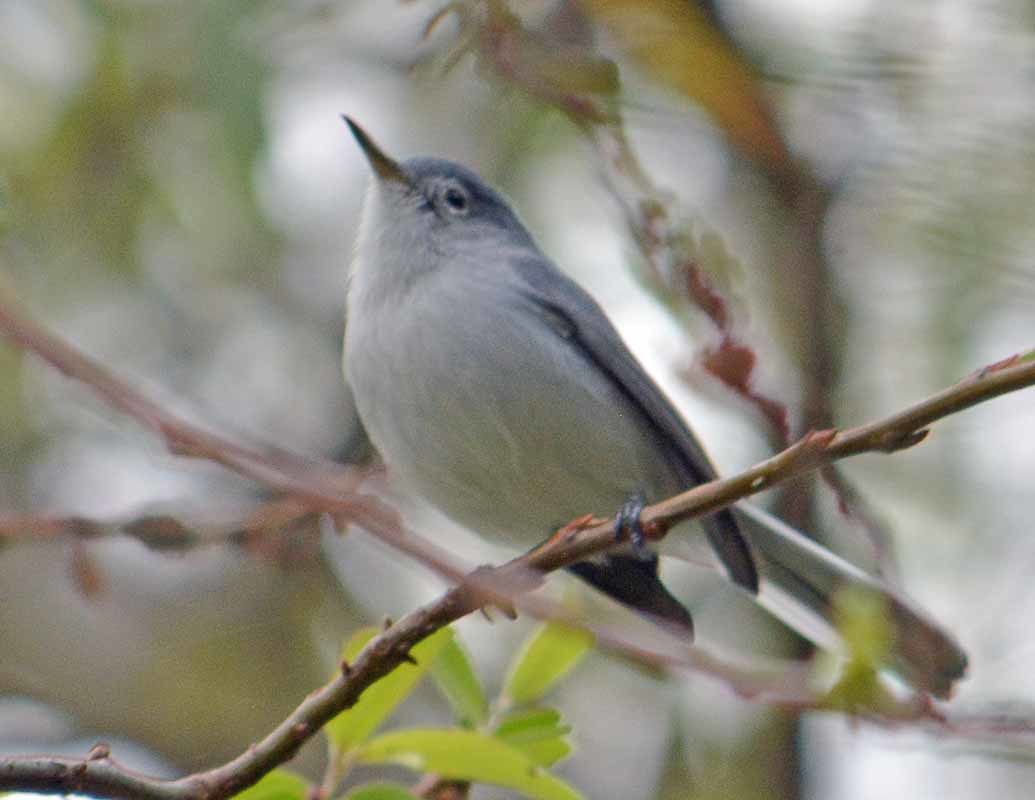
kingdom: Animalia
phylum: Chordata
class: Aves
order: Passeriformes
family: Polioptilidae
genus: Polioptila
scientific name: Polioptila caerulea
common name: Blue-gray gnatcatcher
